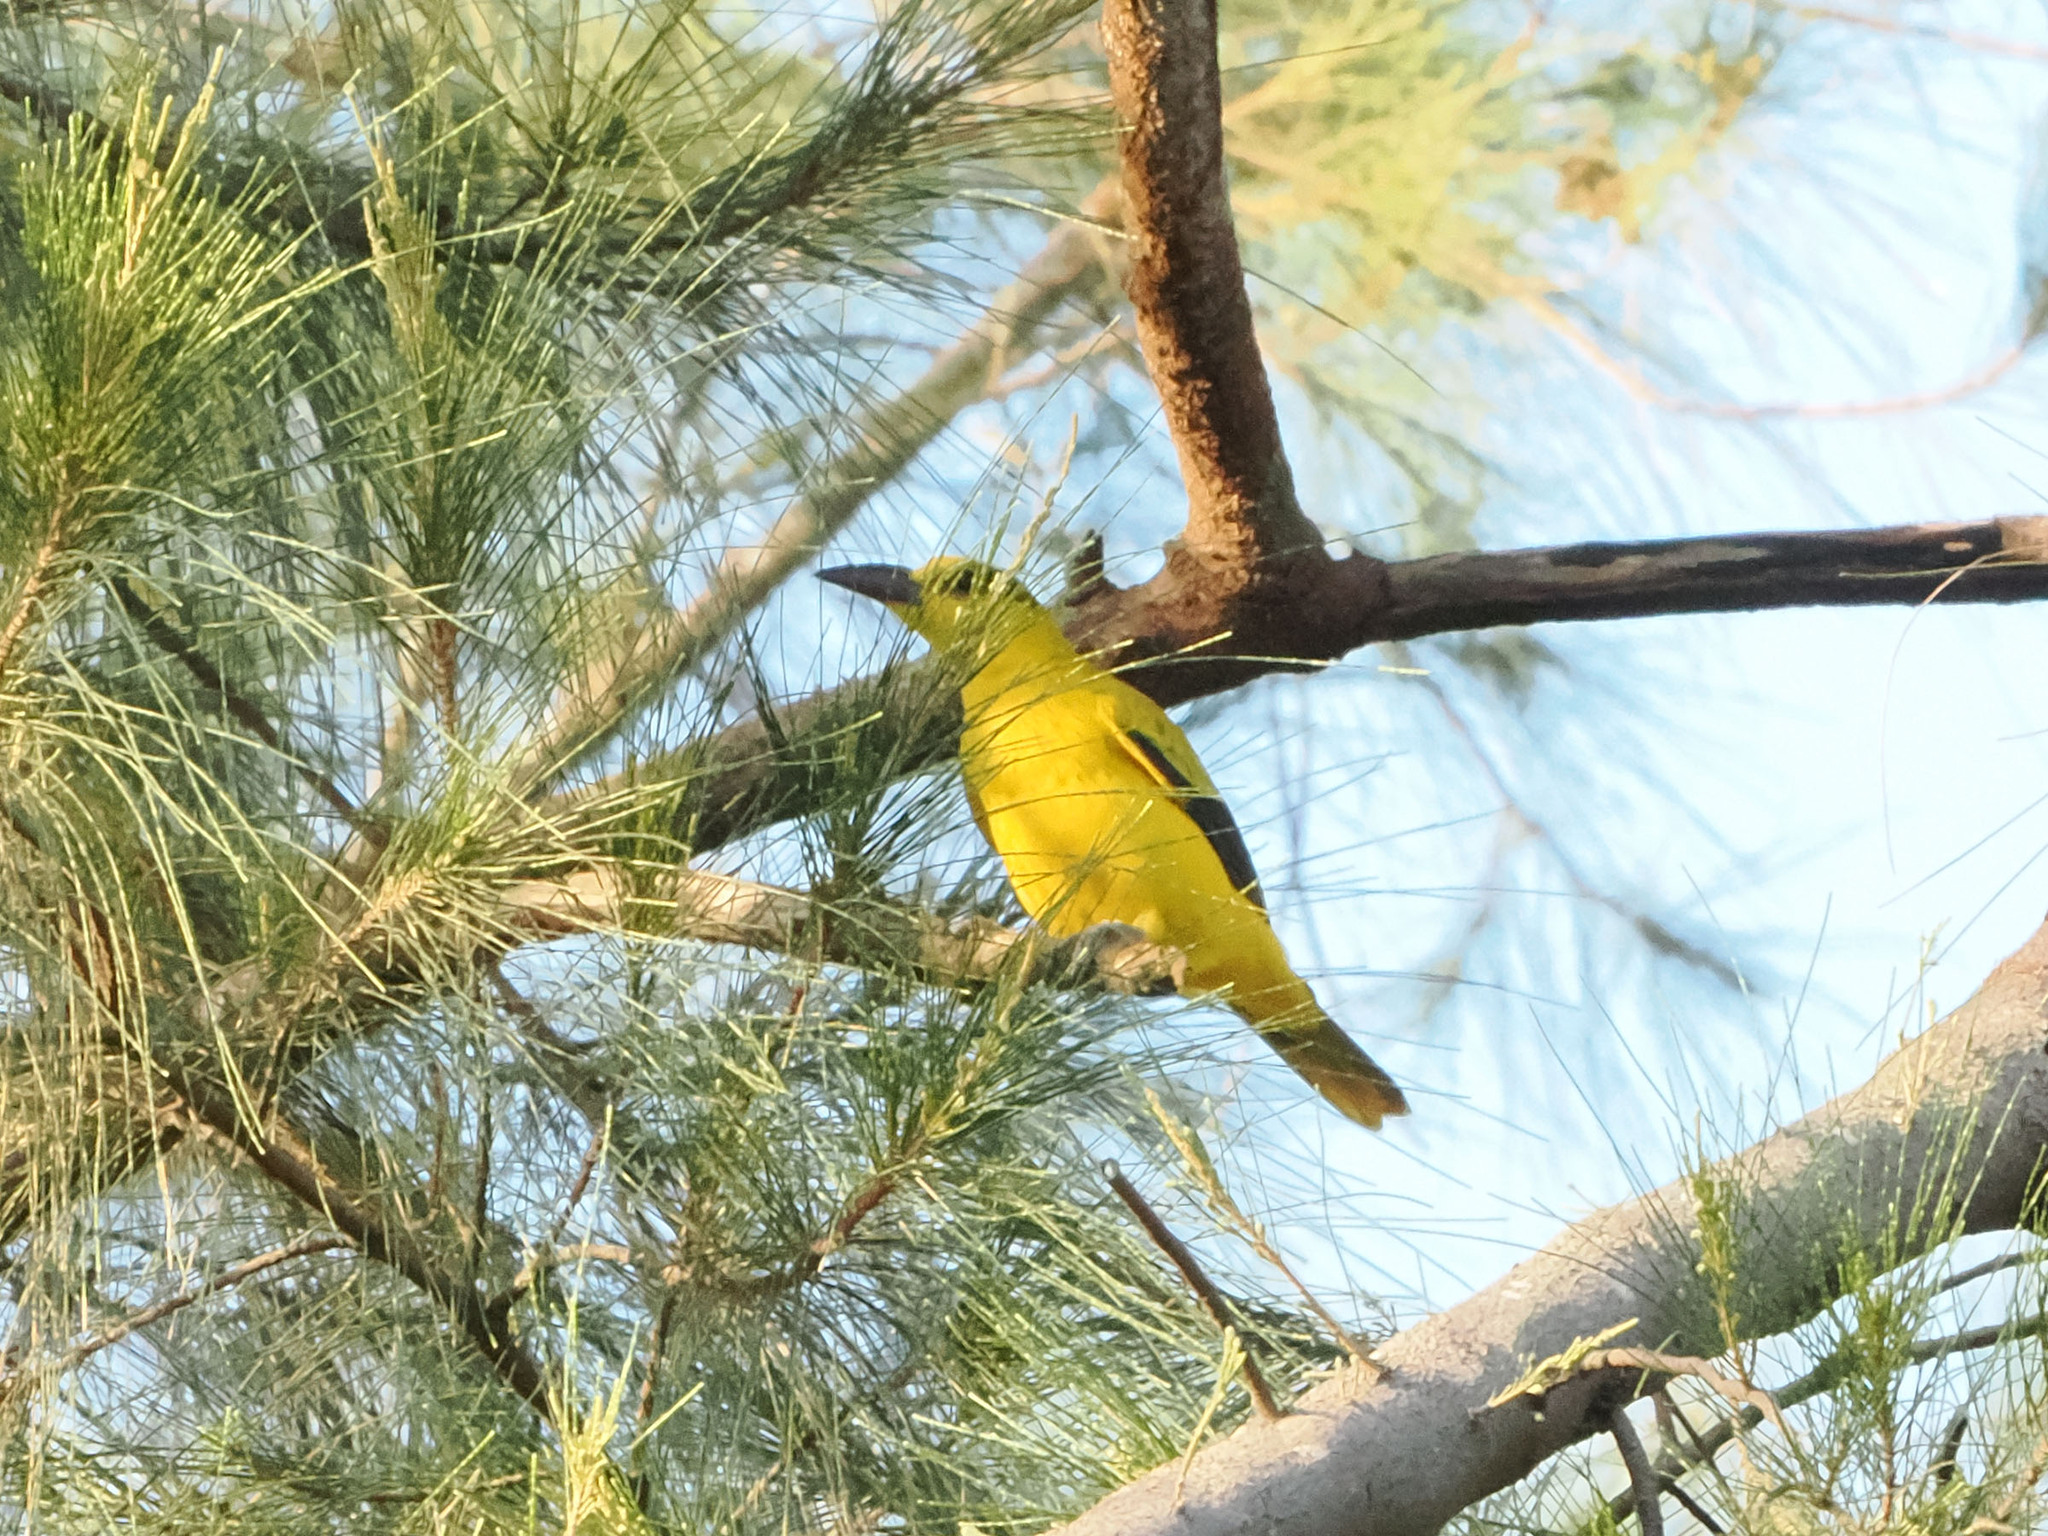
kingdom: Animalia
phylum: Chordata
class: Aves
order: Passeriformes
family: Oriolidae
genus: Oriolus
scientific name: Oriolus chinensis
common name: Black-naped oriole
